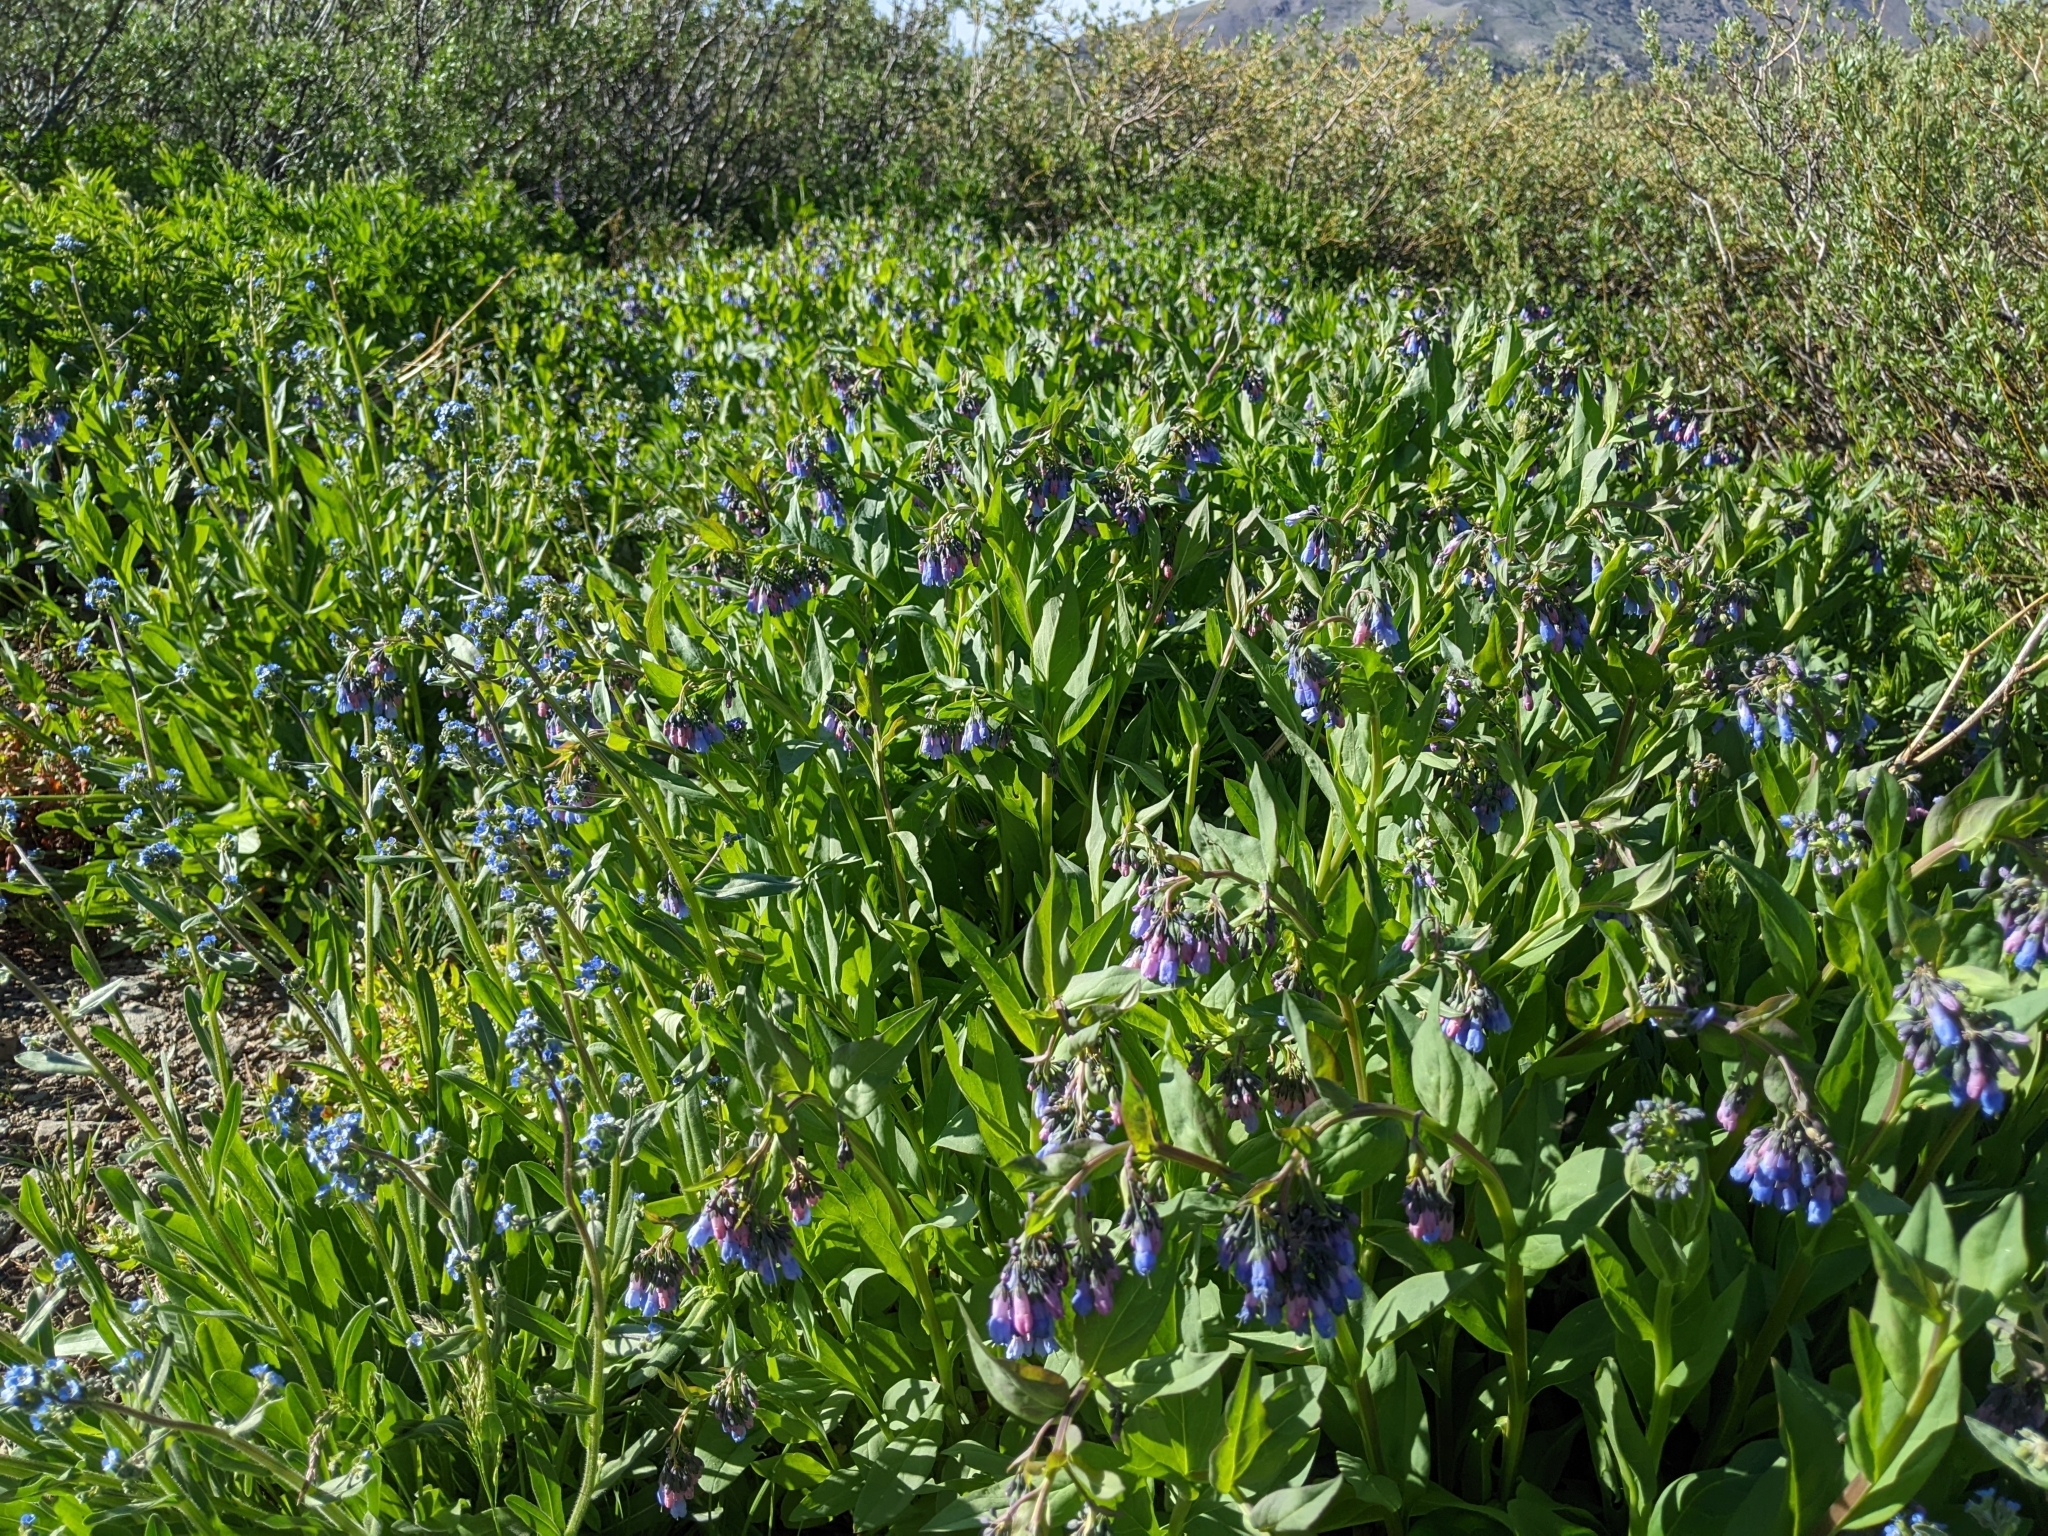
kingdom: Plantae
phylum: Tracheophyta
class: Magnoliopsida
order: Boraginales
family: Boraginaceae
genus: Mertensia
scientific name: Mertensia ciliata
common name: Tall chiming-bells
